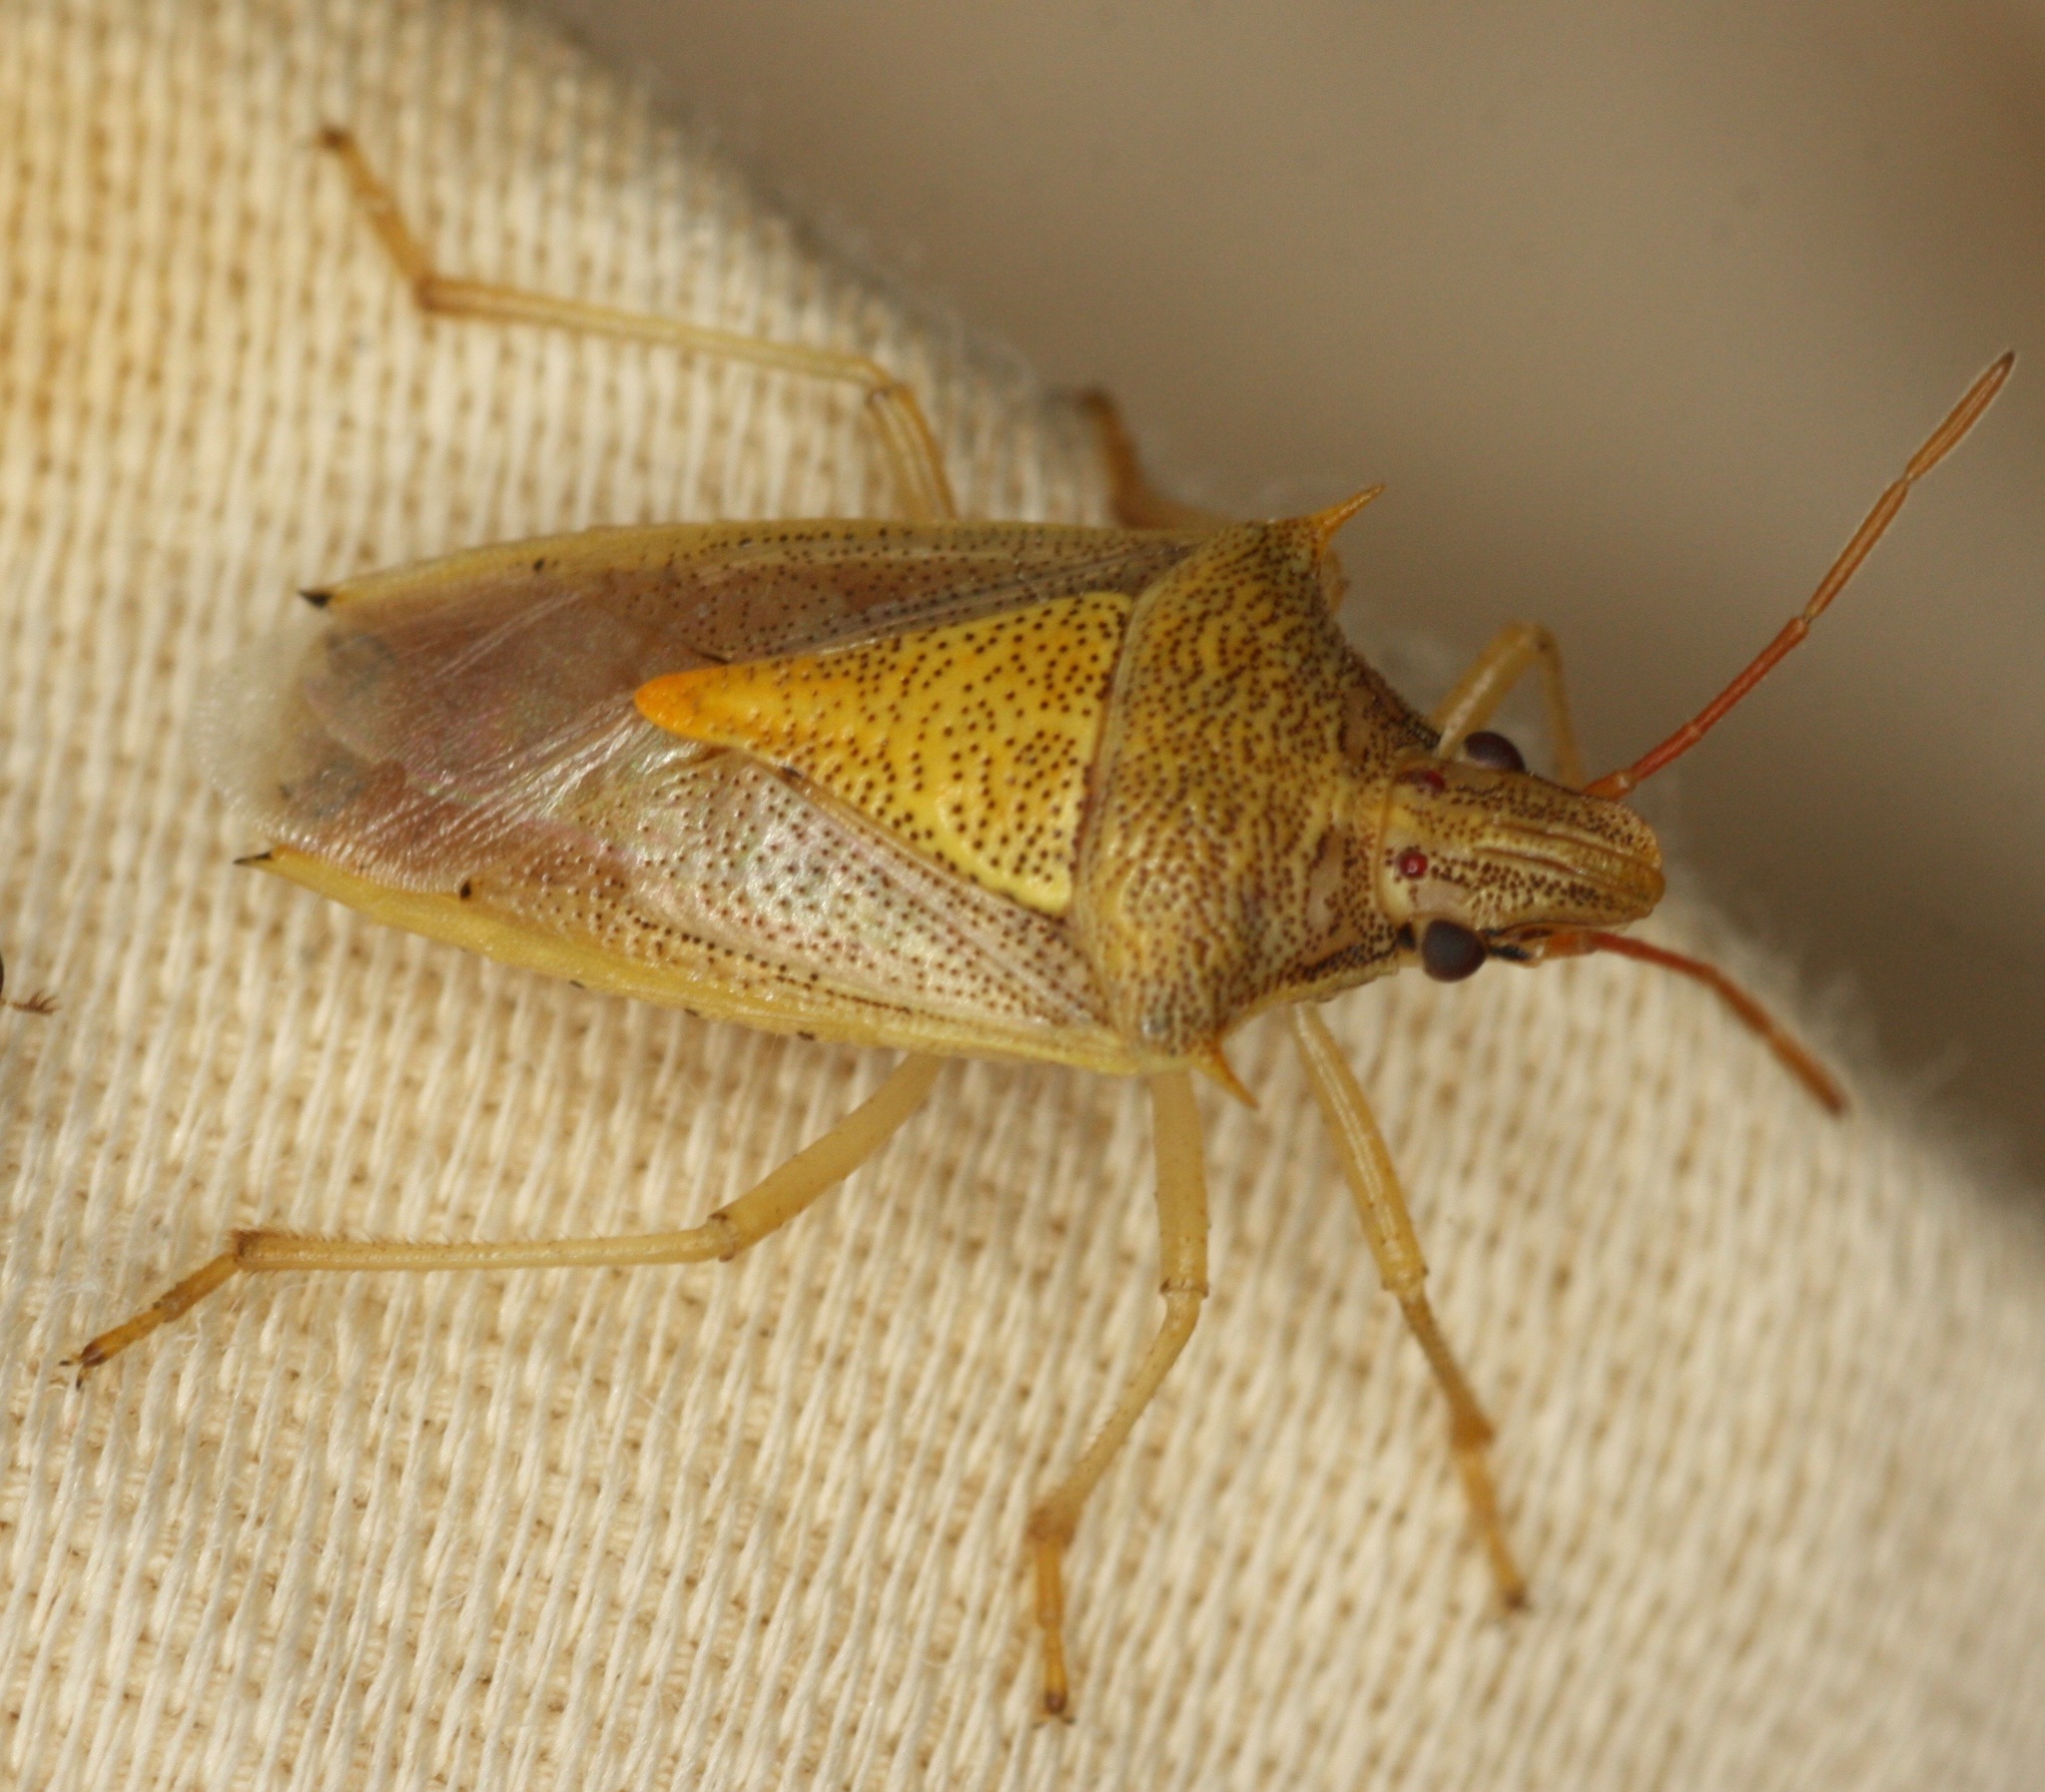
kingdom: Animalia
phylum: Arthropoda
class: Insecta
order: Hemiptera
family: Pentatomidae
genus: Oebalus
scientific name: Oebalus pugnax
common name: Rice stink bug
